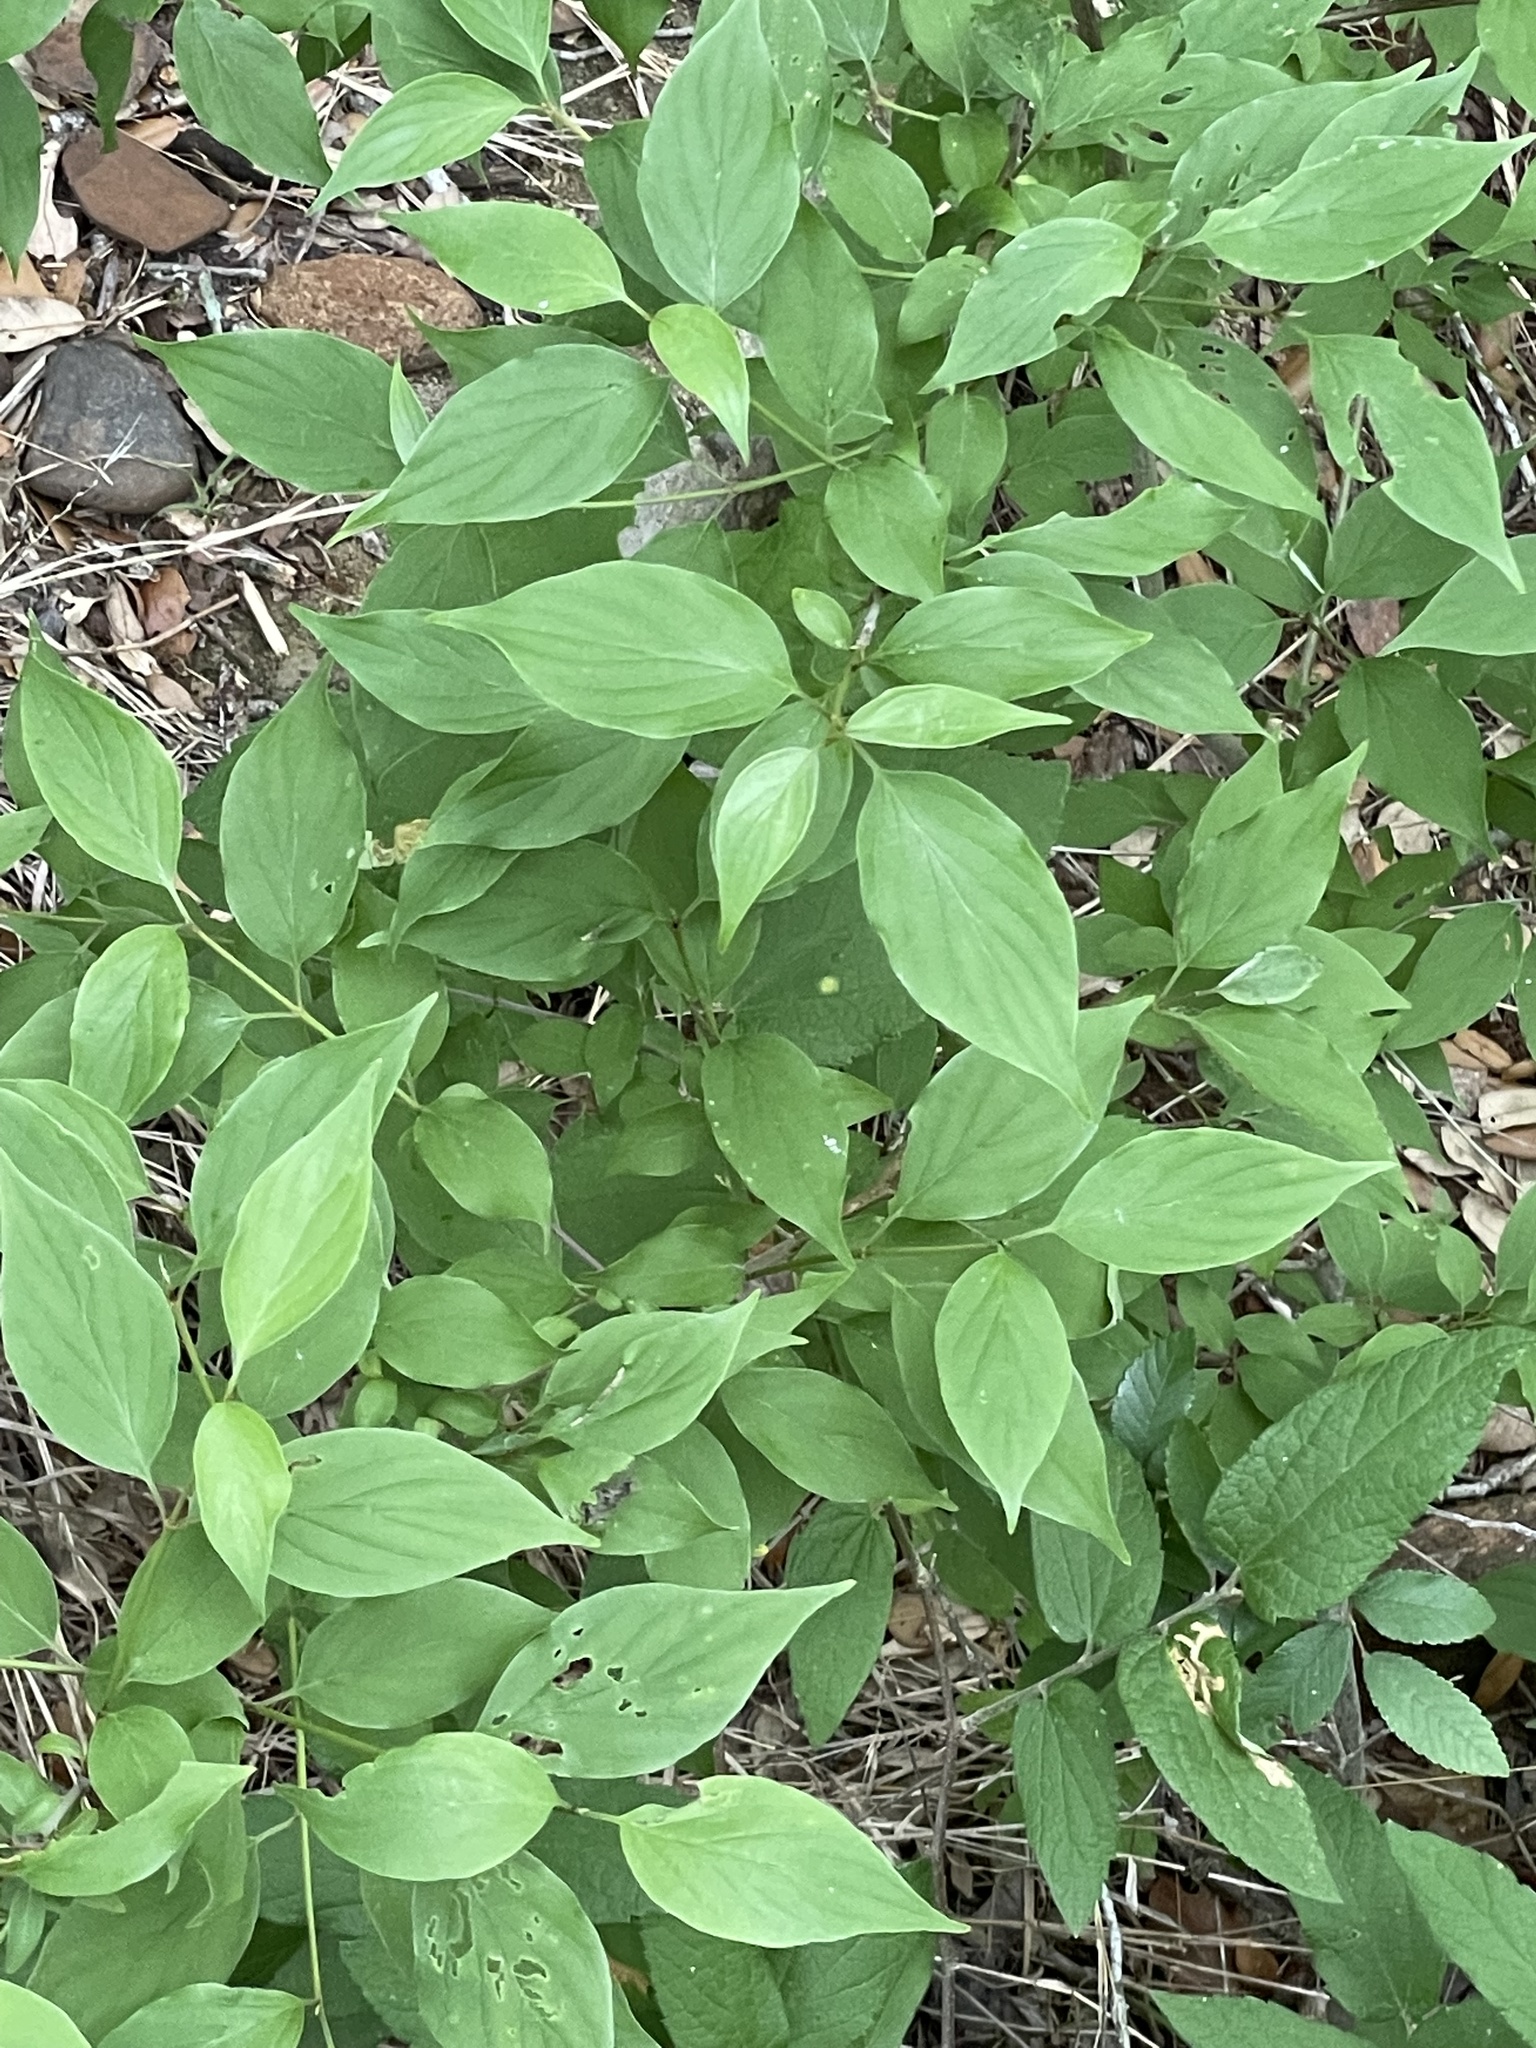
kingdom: Plantae
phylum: Tracheophyta
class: Magnoliopsida
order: Cornales
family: Cornaceae
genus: Cornus
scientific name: Cornus drummondii
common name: Rough-leaf dogwood
